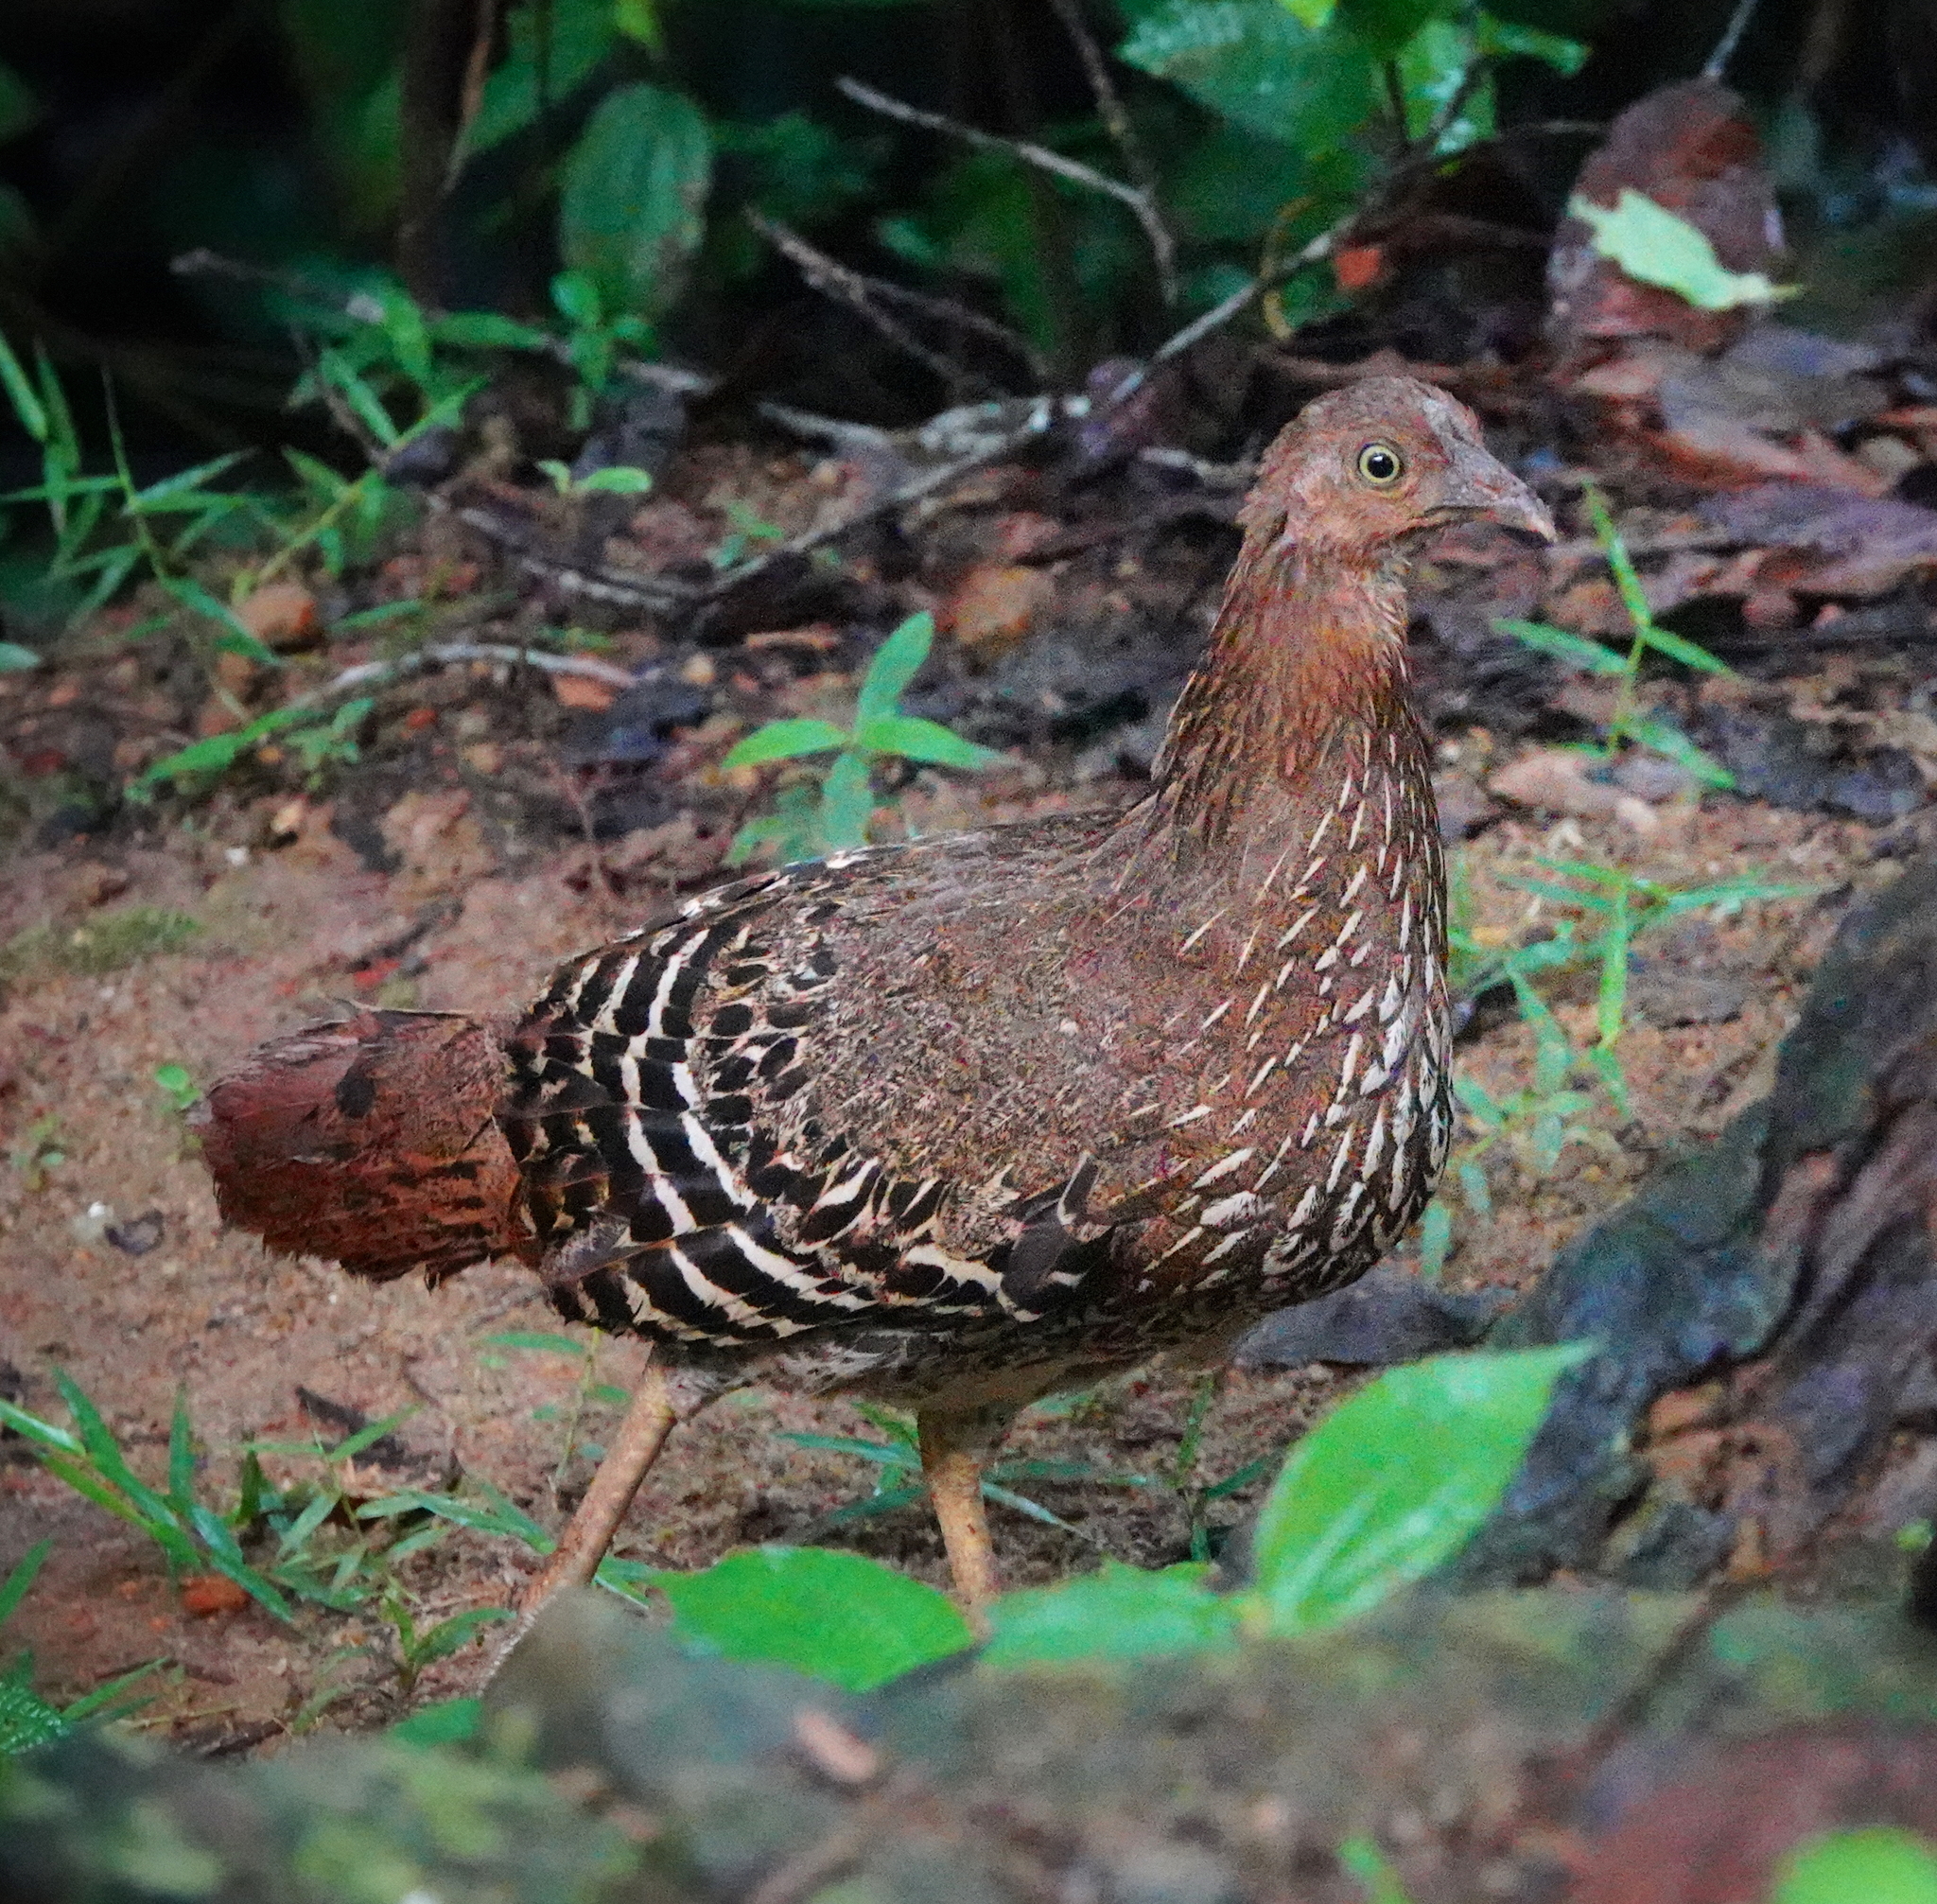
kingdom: Animalia
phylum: Chordata
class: Aves
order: Galliformes
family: Phasianidae
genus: Gallus
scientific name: Gallus lafayettii
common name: Sri lanka junglefowl
